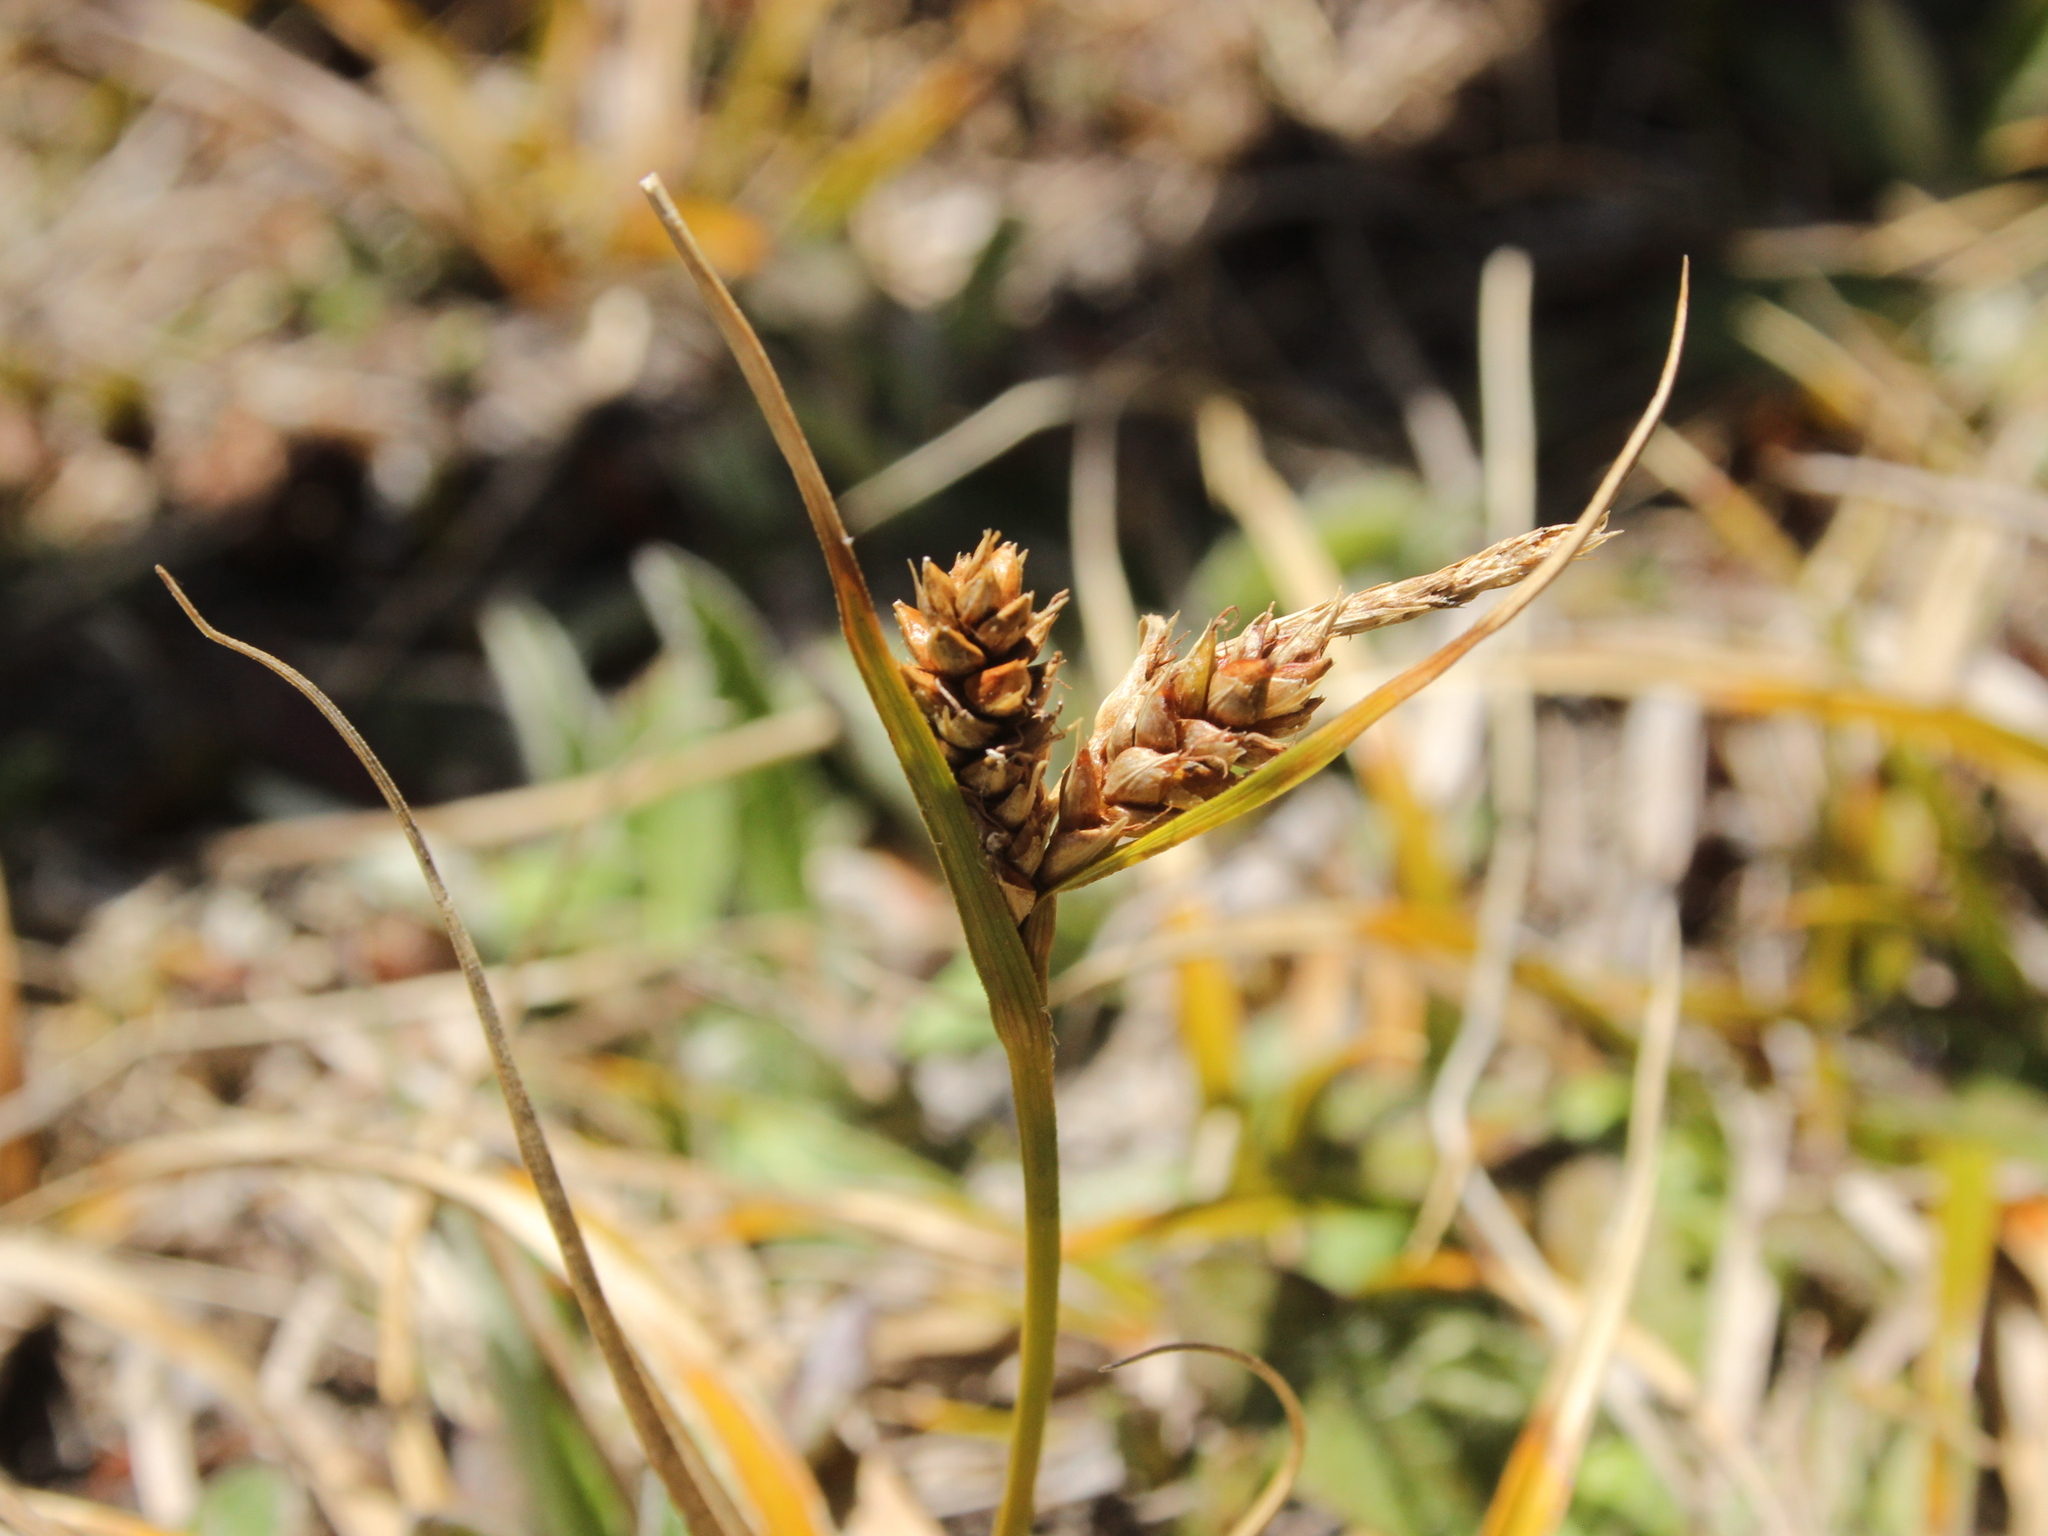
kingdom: Plantae
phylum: Tracheophyta
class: Liliopsida
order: Poales
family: Cyperaceae
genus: Carex
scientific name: Carex wakatipu
